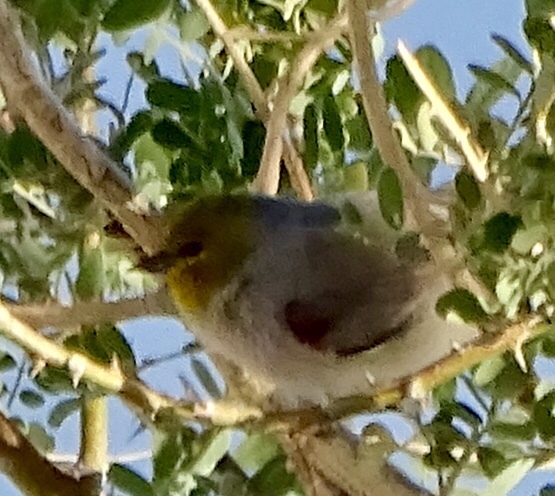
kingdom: Animalia
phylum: Chordata
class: Aves
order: Passeriformes
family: Remizidae
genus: Auriparus
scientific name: Auriparus flaviceps
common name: Verdin
